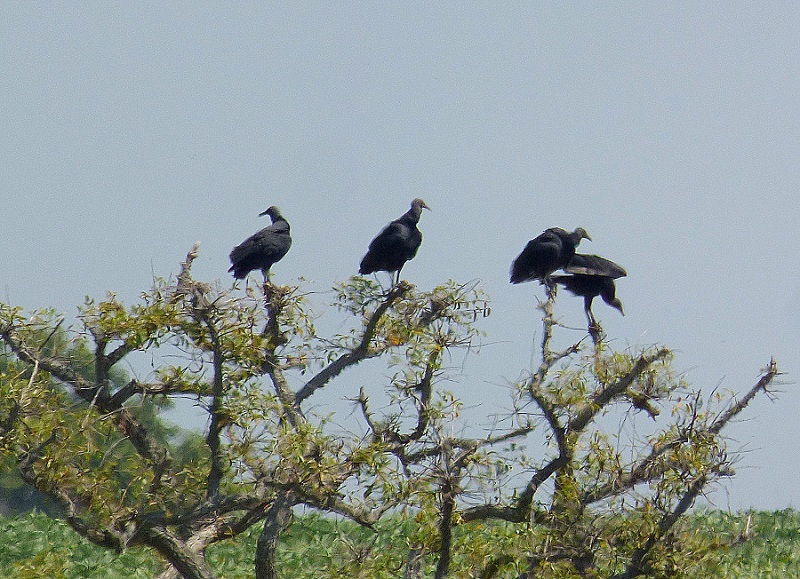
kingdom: Animalia
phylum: Chordata
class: Aves
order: Accipitriformes
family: Cathartidae
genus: Coragyps
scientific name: Coragyps atratus
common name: Black vulture
